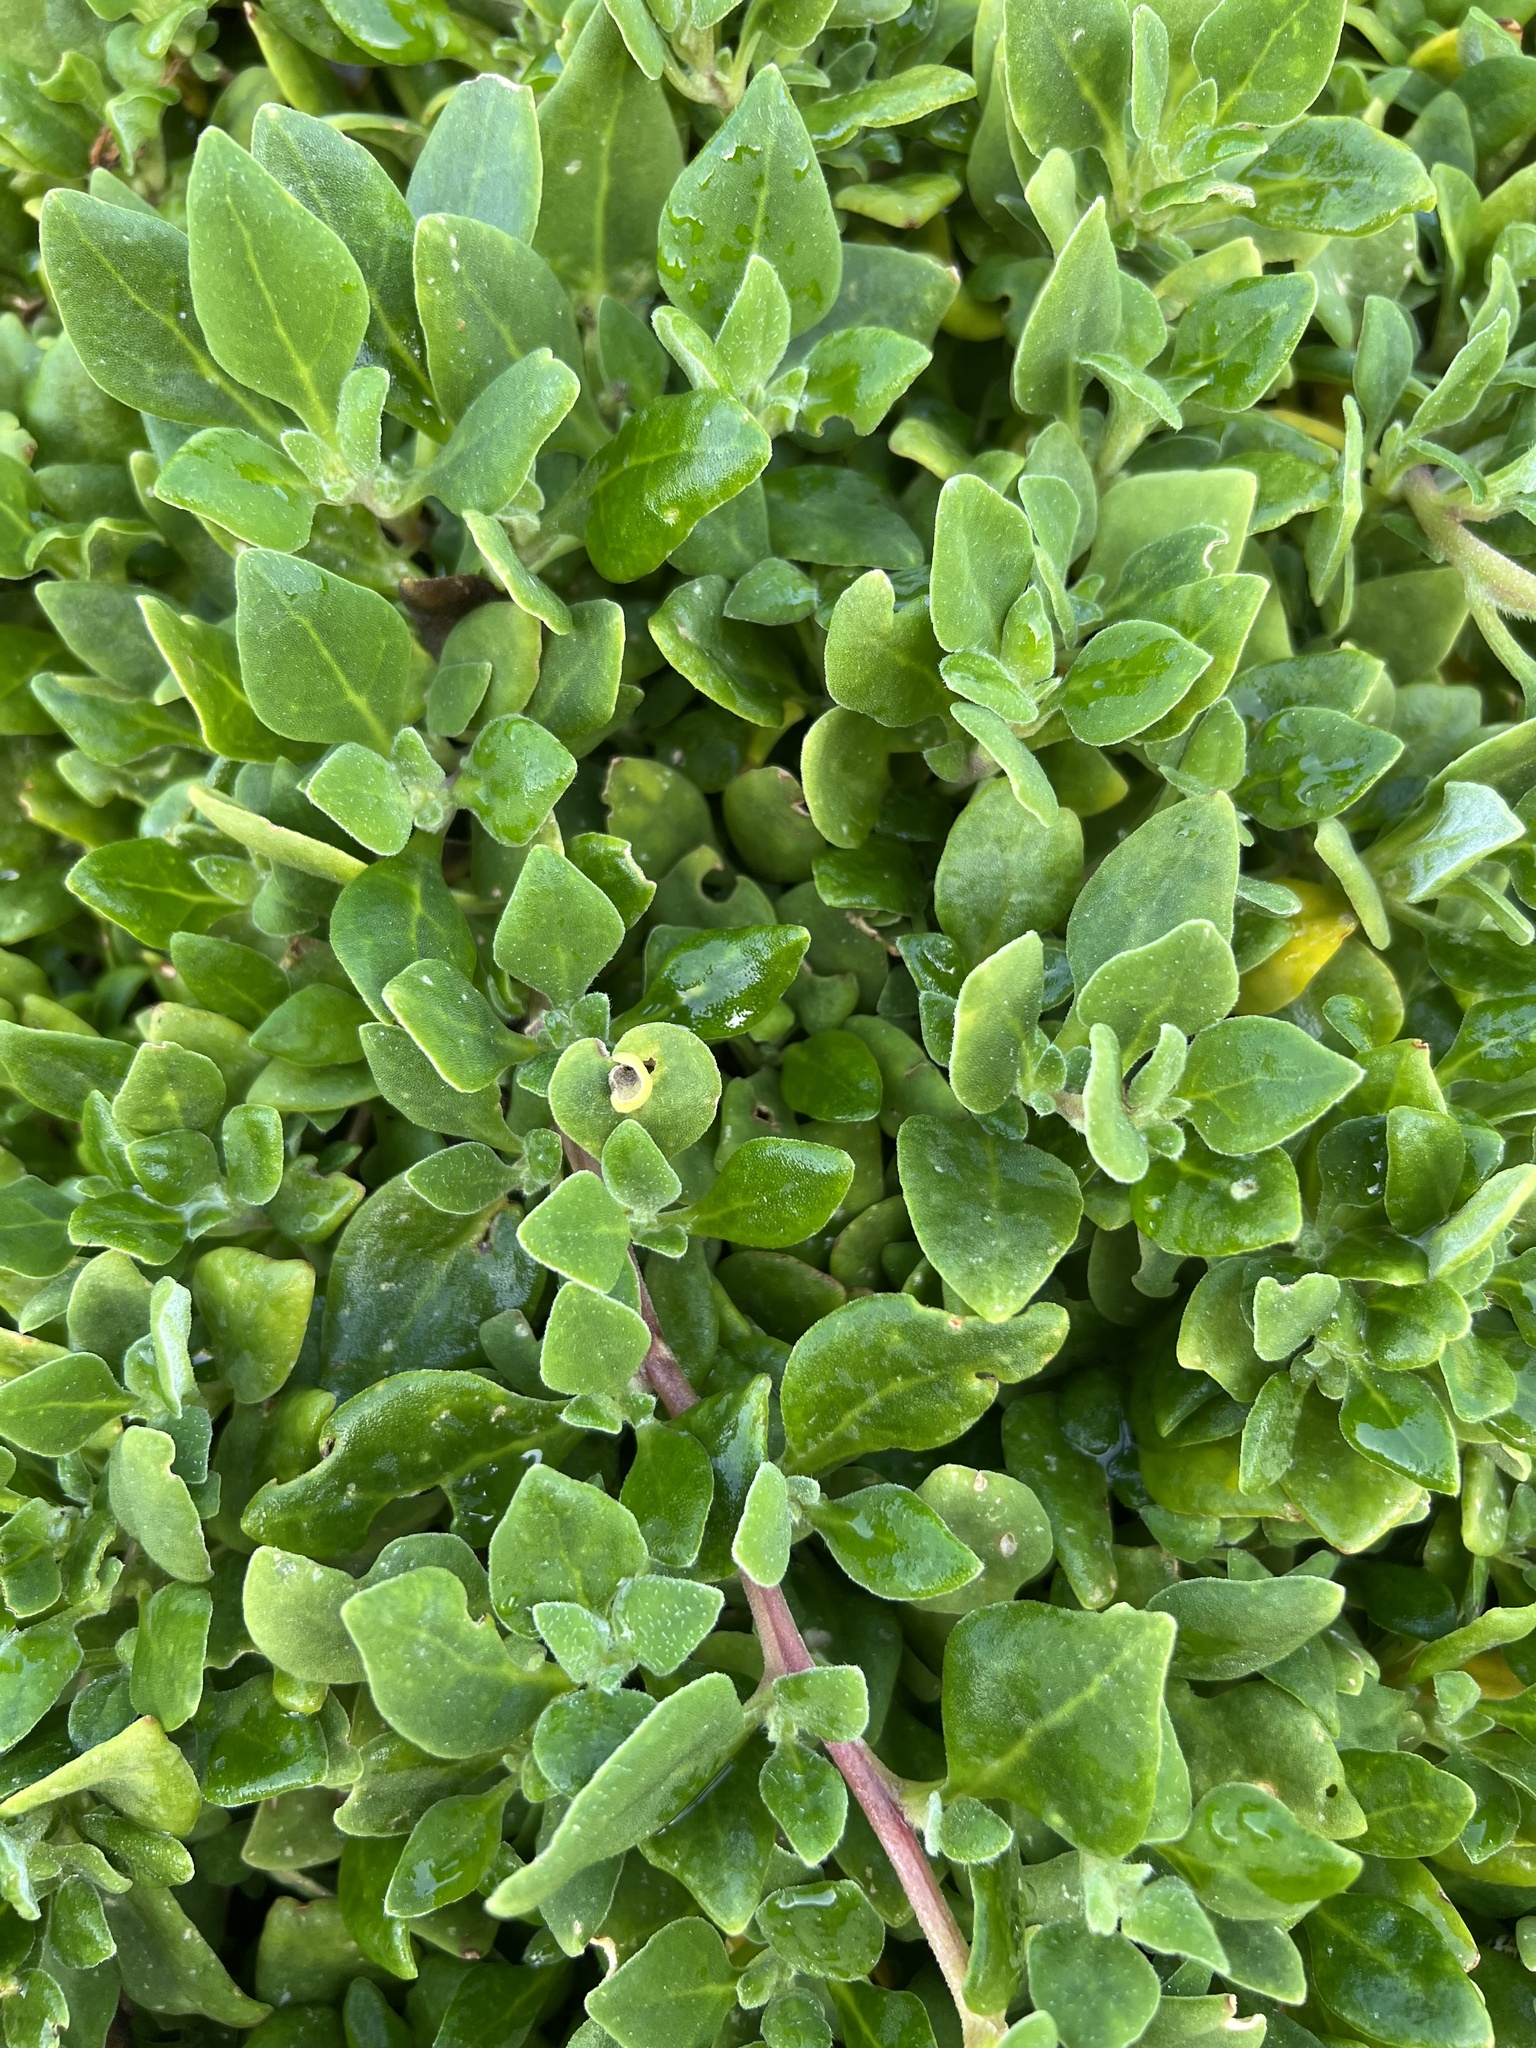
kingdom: Plantae
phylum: Tracheophyta
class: Magnoliopsida
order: Caryophyllales
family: Aizoaceae
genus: Tetragonia
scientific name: Tetragonia implexicoma
